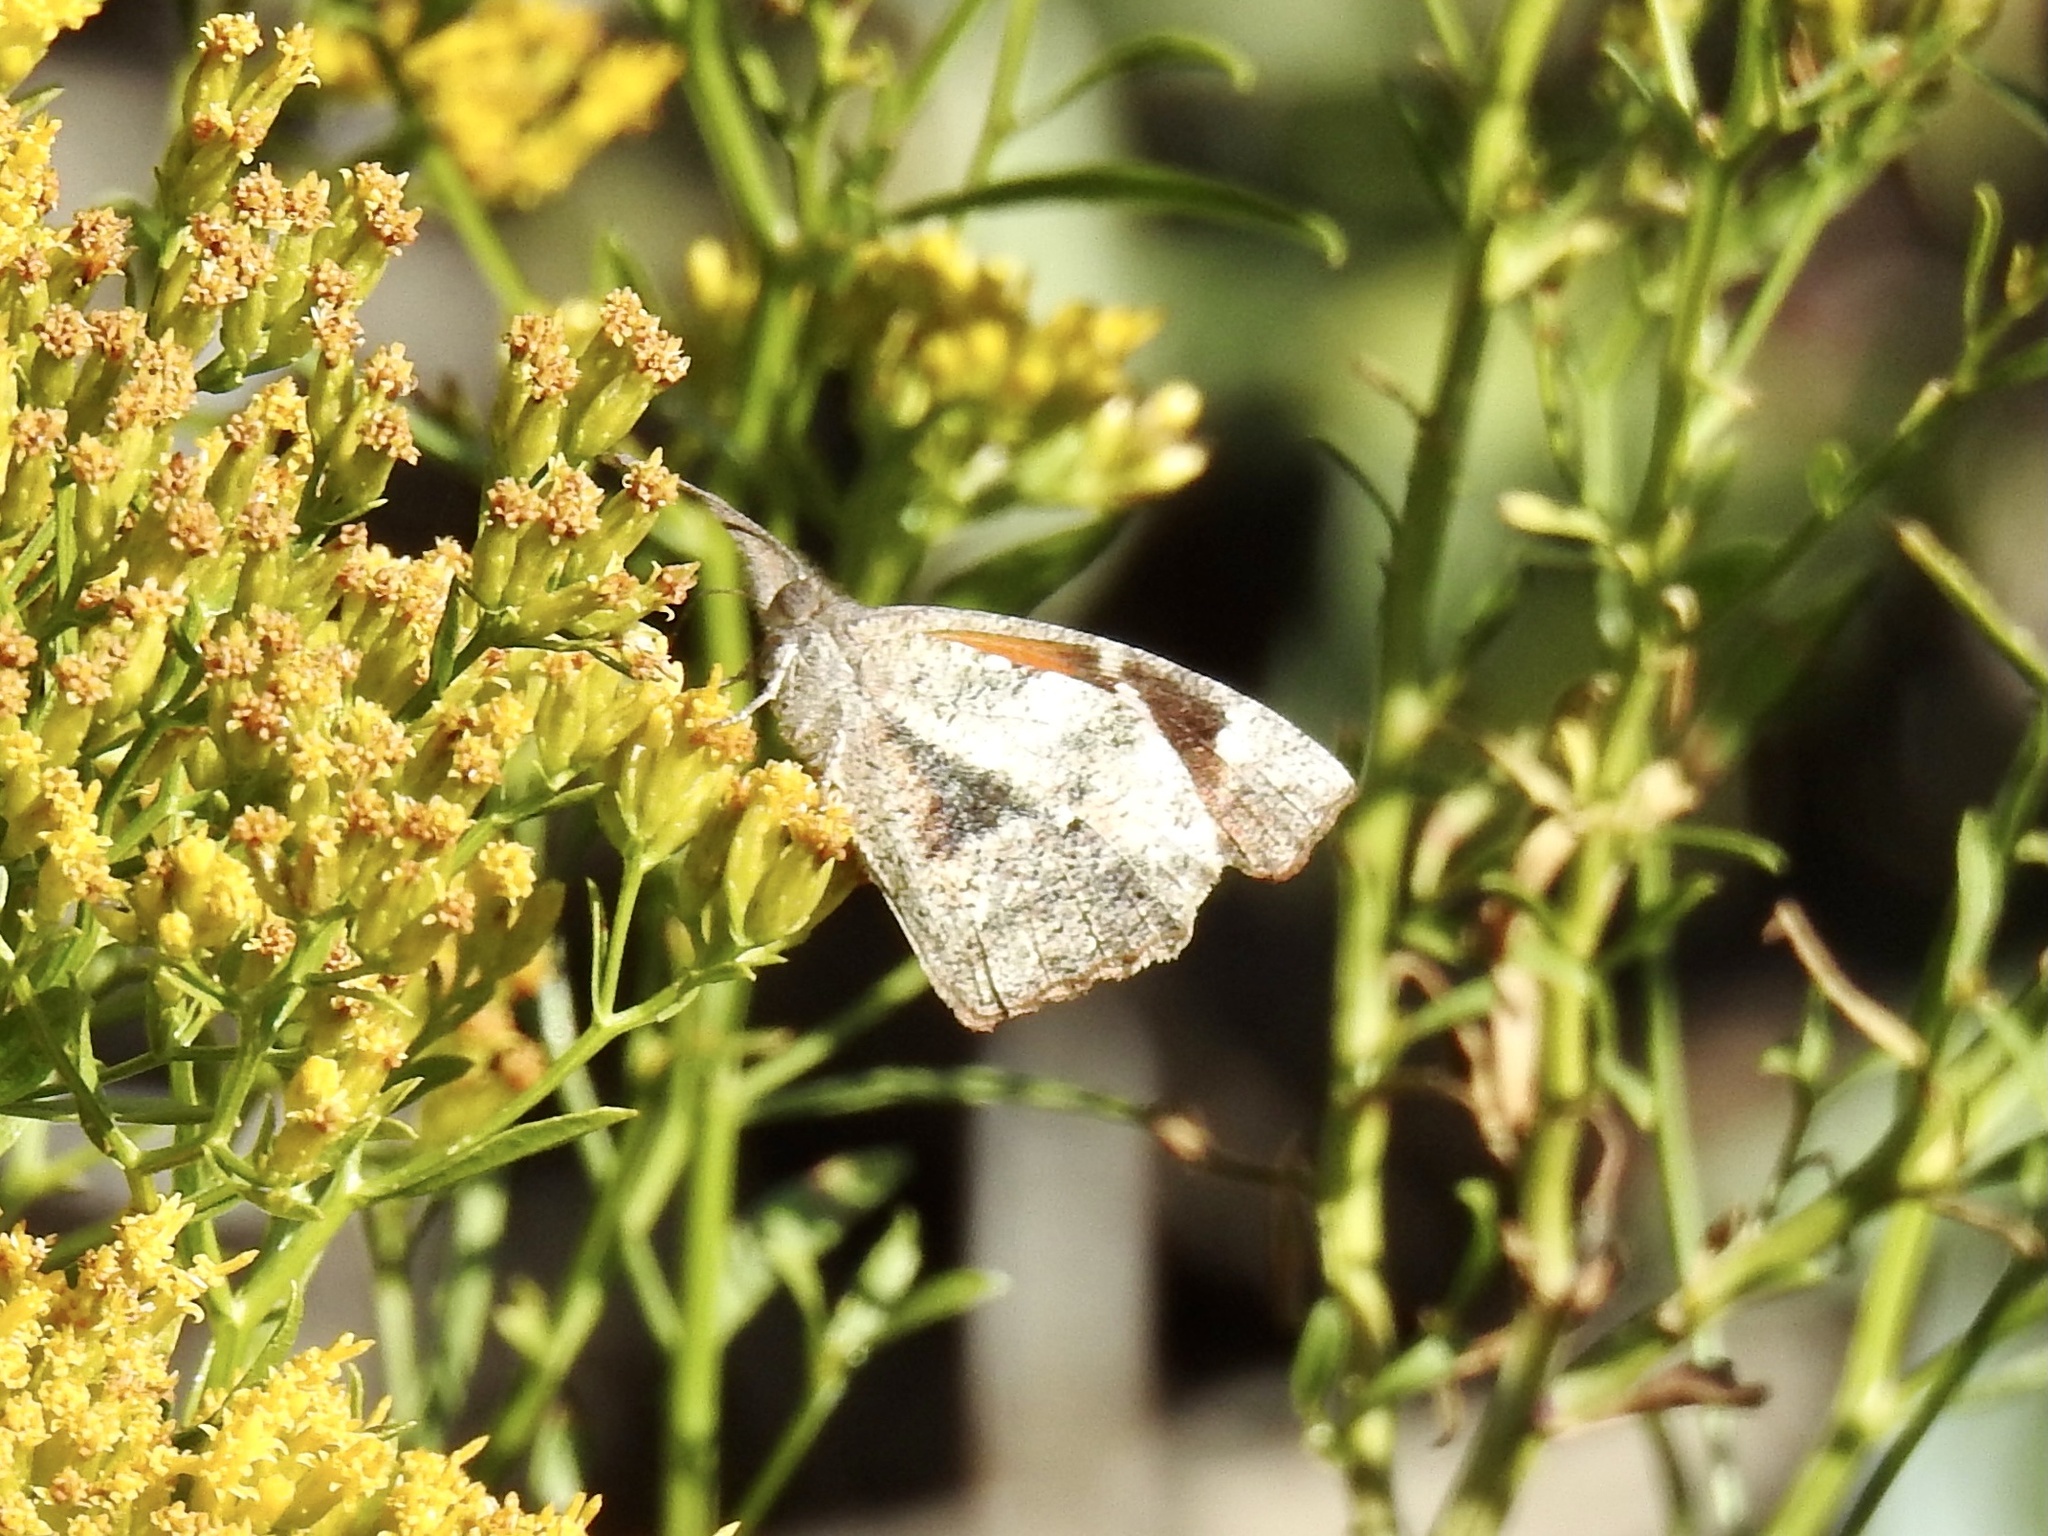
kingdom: Animalia
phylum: Arthropoda
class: Insecta
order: Lepidoptera
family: Nymphalidae
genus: Libytheana
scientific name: Libytheana carinenta
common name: American snout
